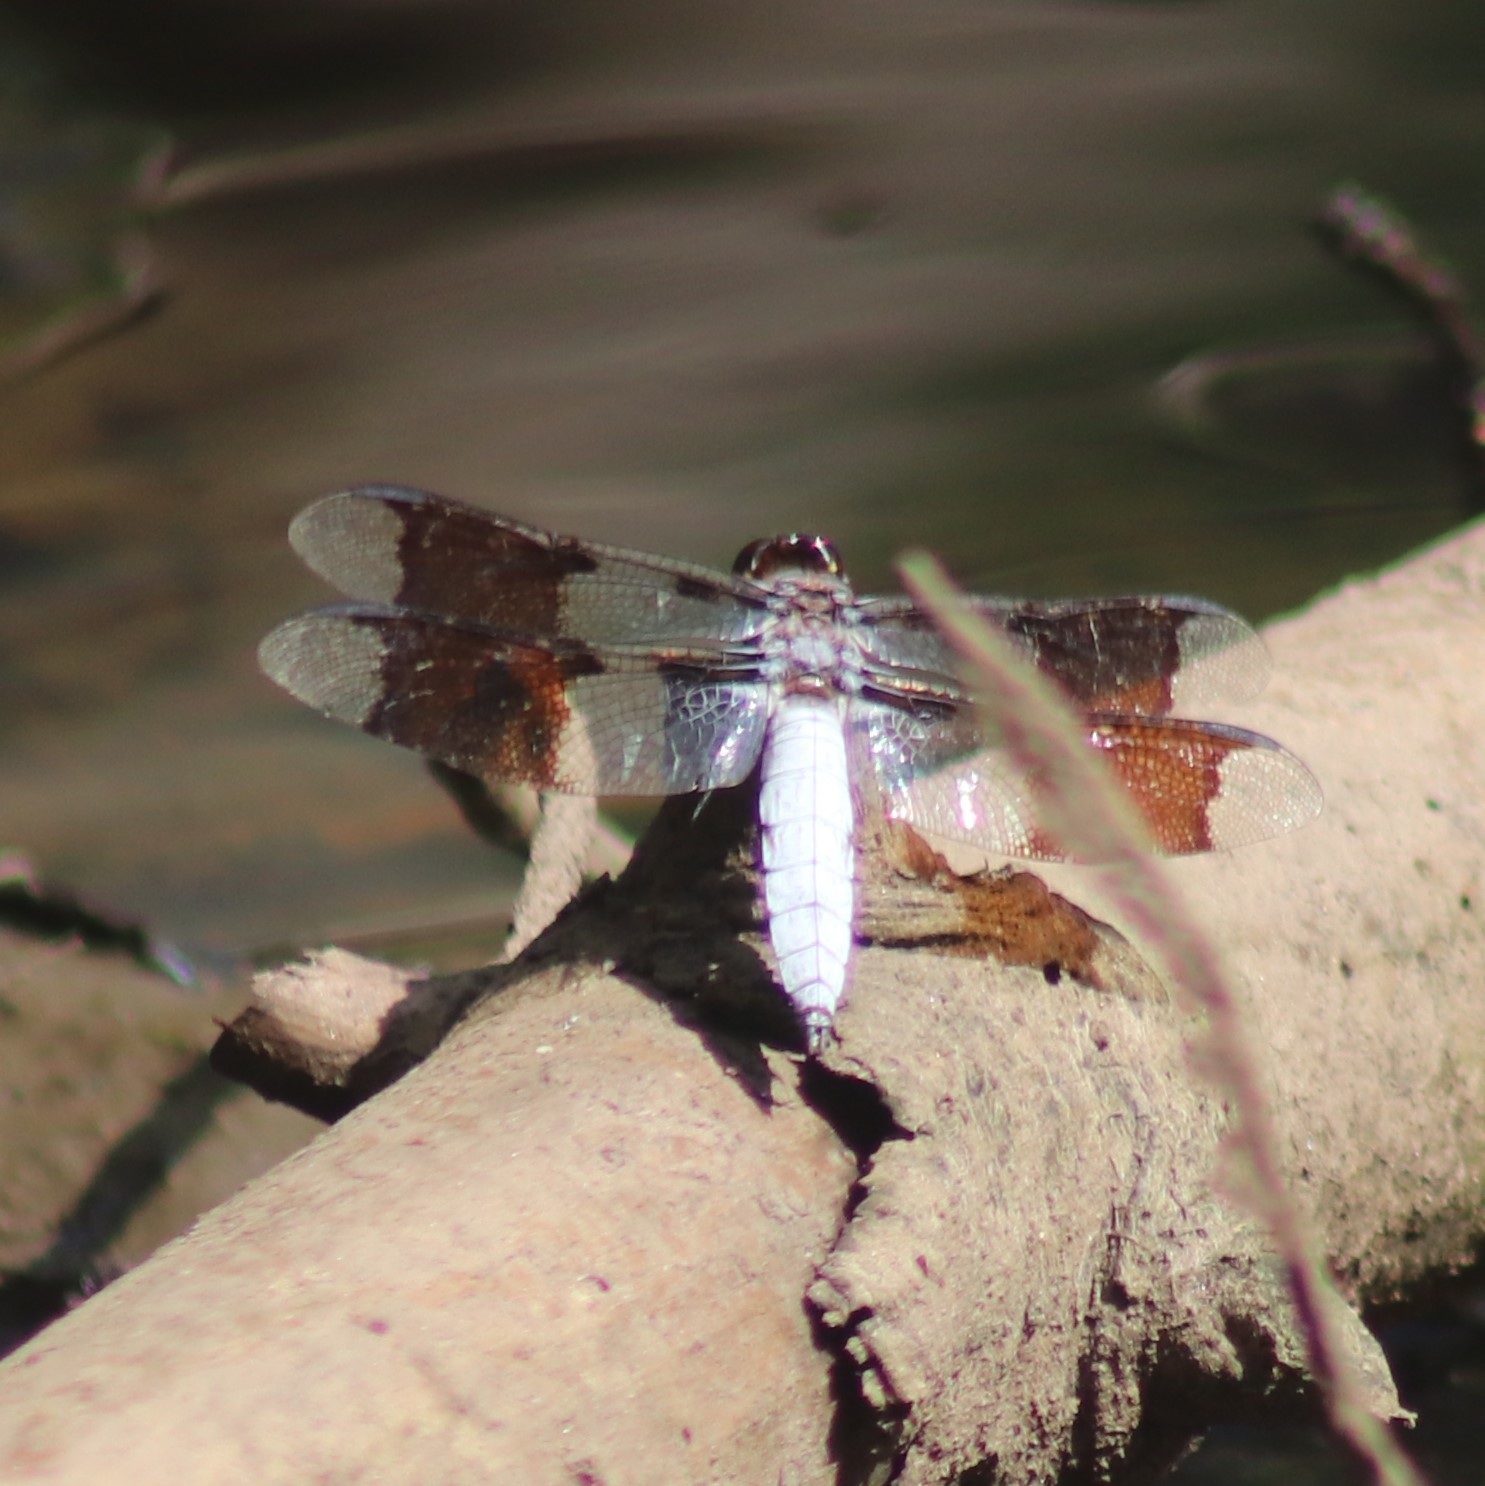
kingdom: Animalia
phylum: Arthropoda
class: Insecta
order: Odonata
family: Libellulidae
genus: Plathemis
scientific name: Plathemis lydia
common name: Common whitetail
